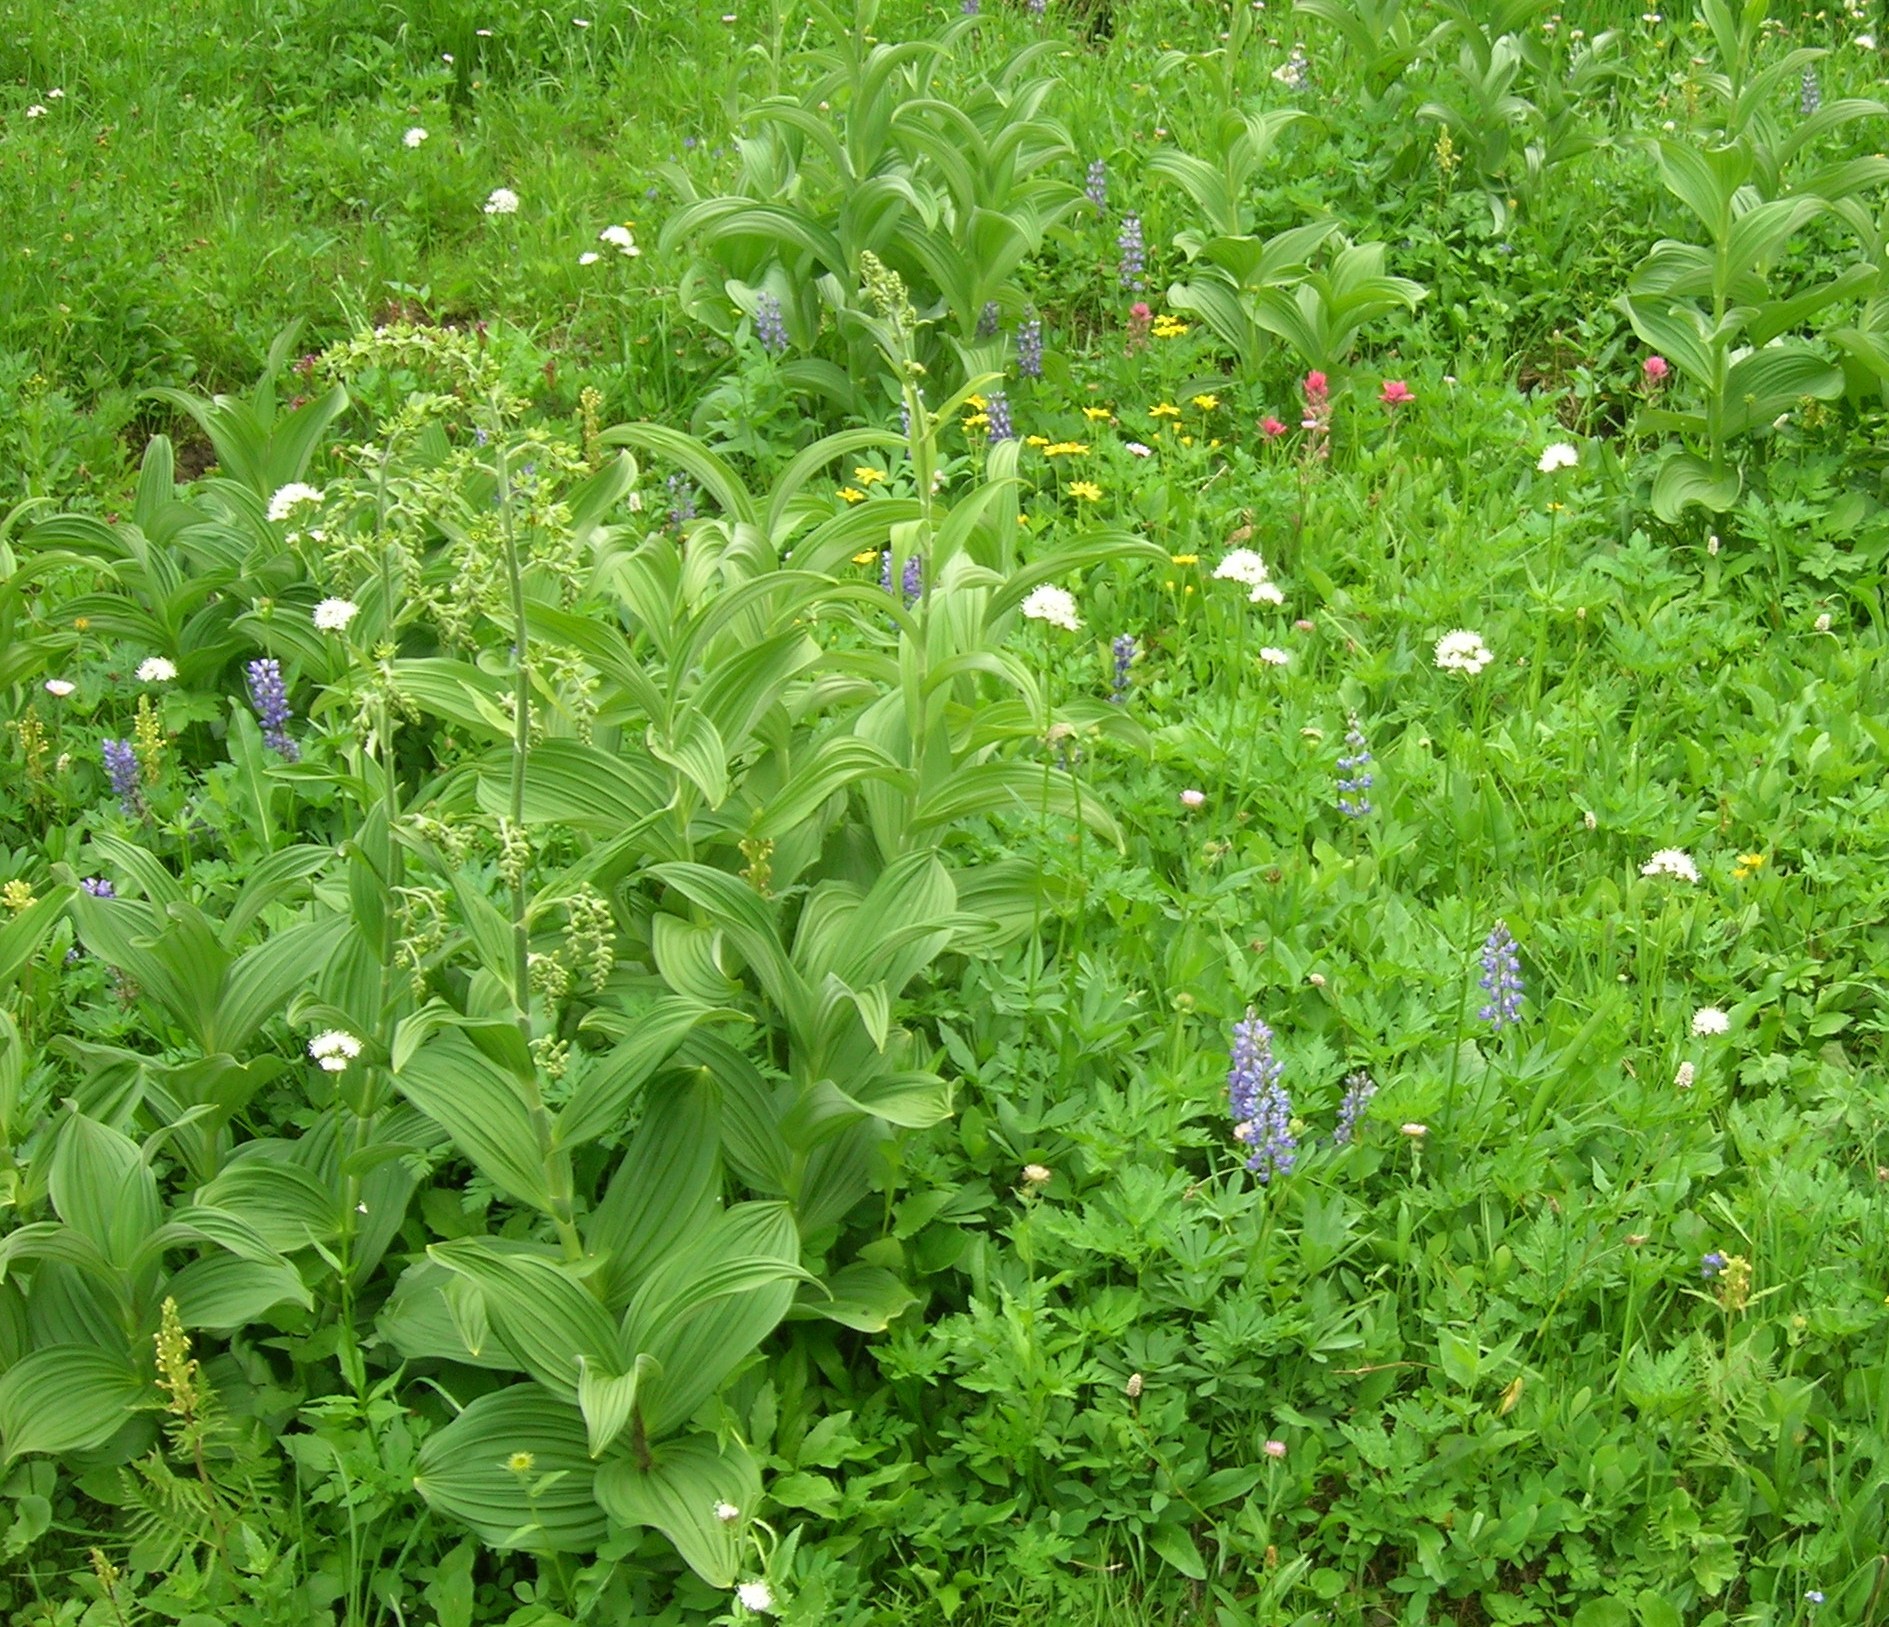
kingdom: Plantae
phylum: Tracheophyta
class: Liliopsida
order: Liliales
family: Melanthiaceae
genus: Veratrum
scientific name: Veratrum viride
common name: American false hellebore
